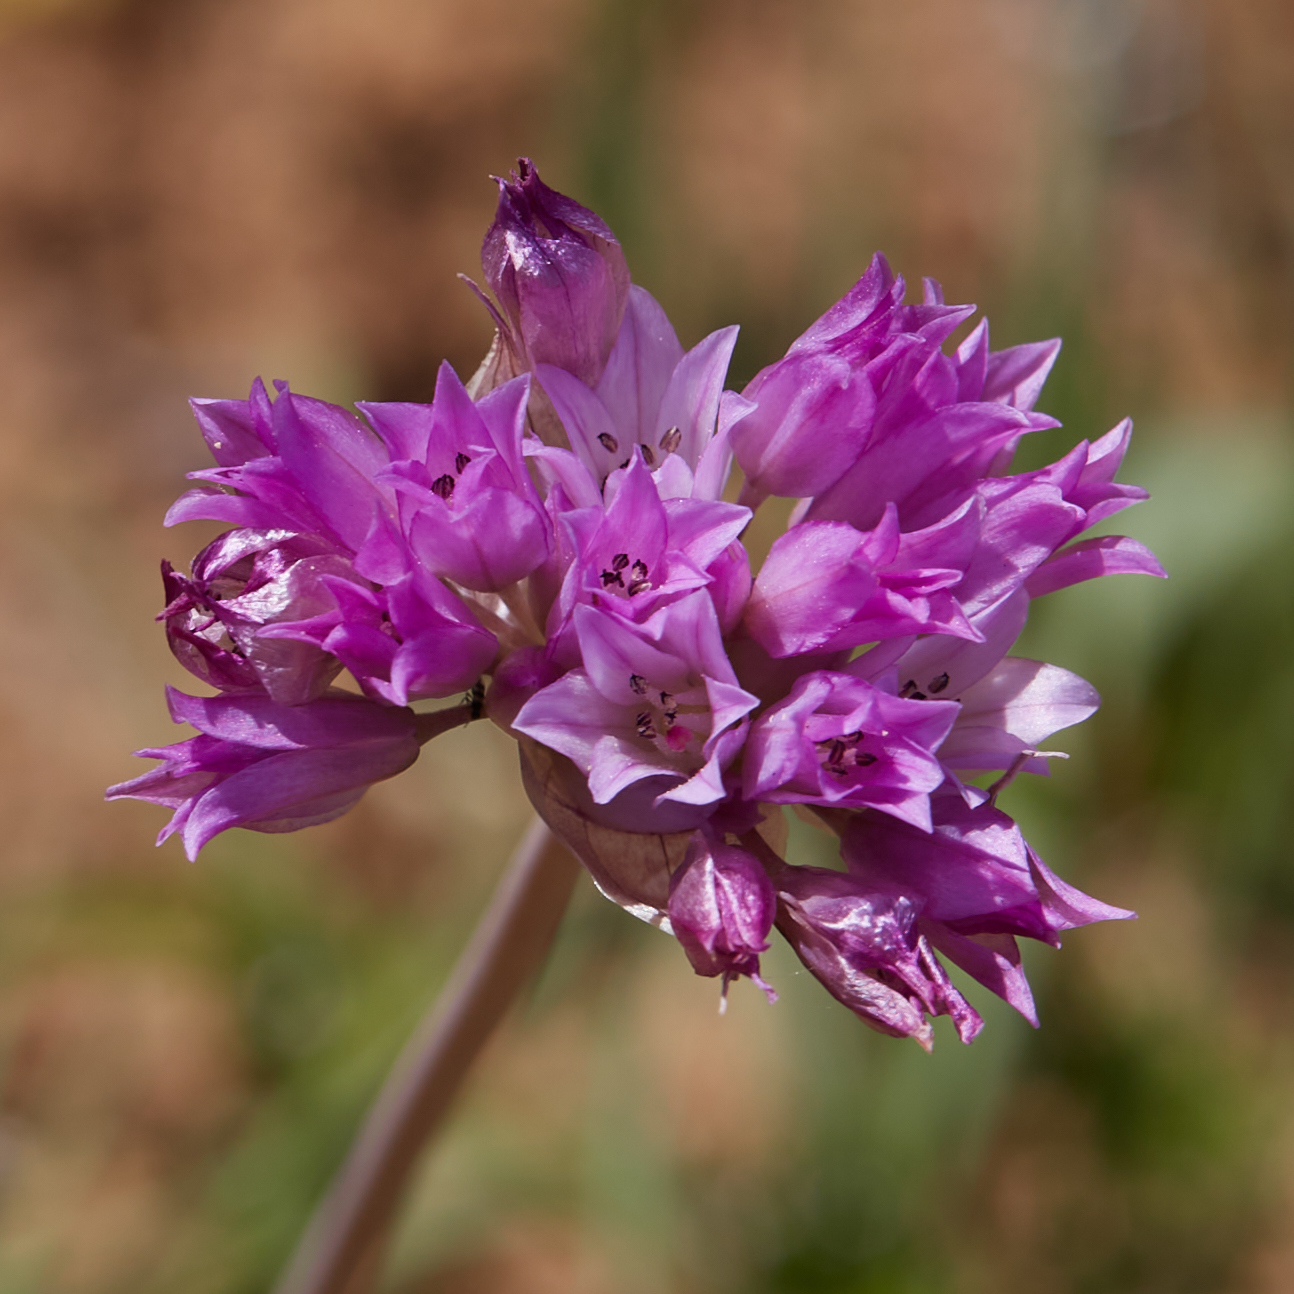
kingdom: Plantae
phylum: Tracheophyta
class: Liliopsida
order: Asparagales
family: Amaryllidaceae
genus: Allium
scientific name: Allium serra
